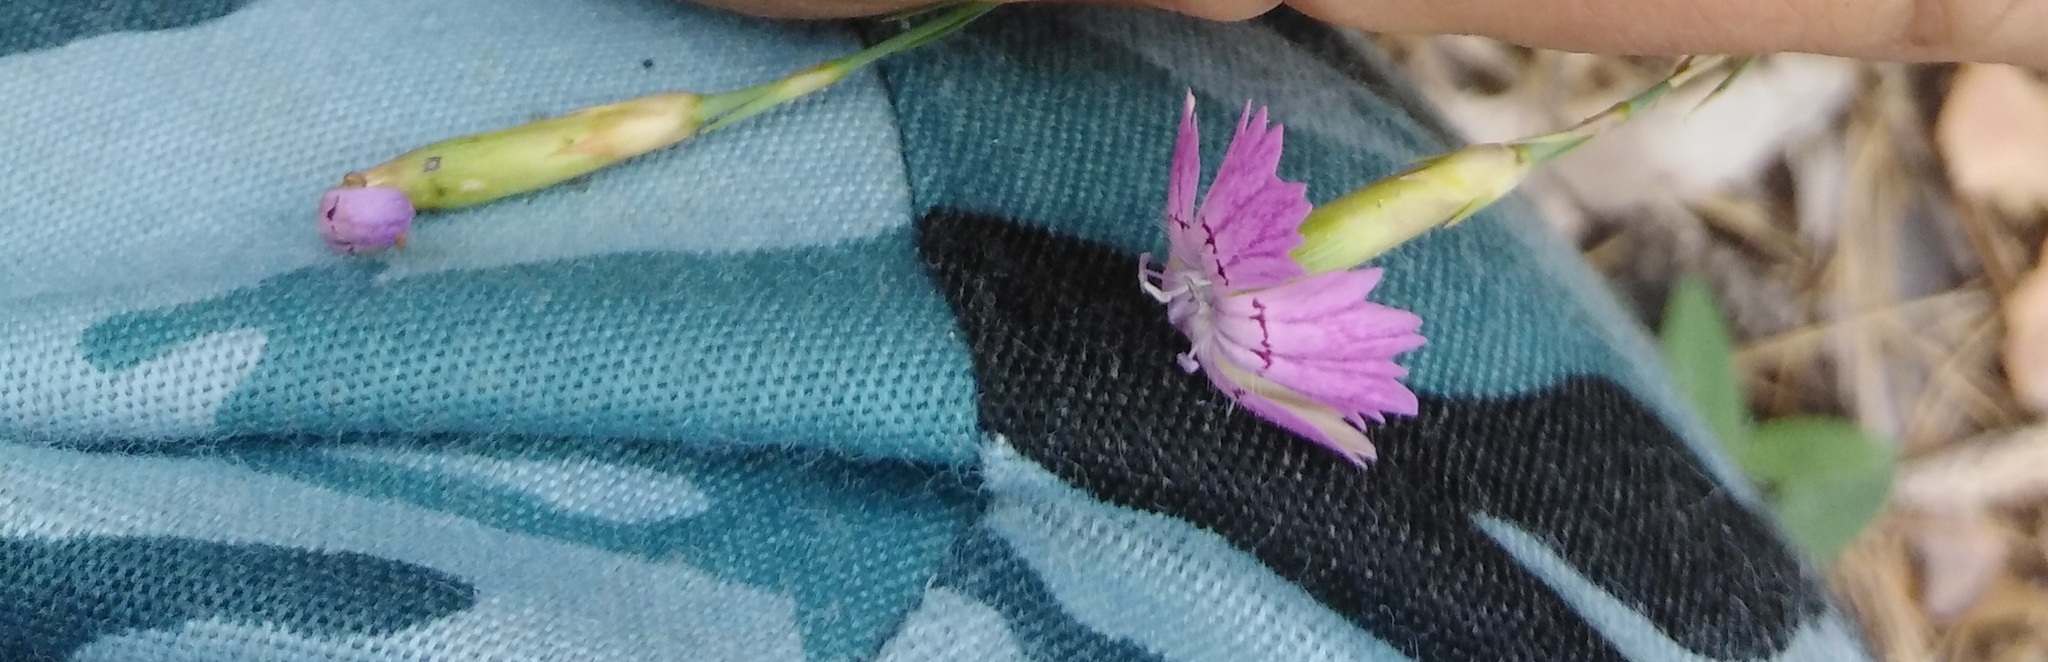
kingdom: Plantae
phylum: Tracheophyta
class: Magnoliopsida
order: Caryophyllales
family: Caryophyllaceae
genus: Dianthus
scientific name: Dianthus campestris
